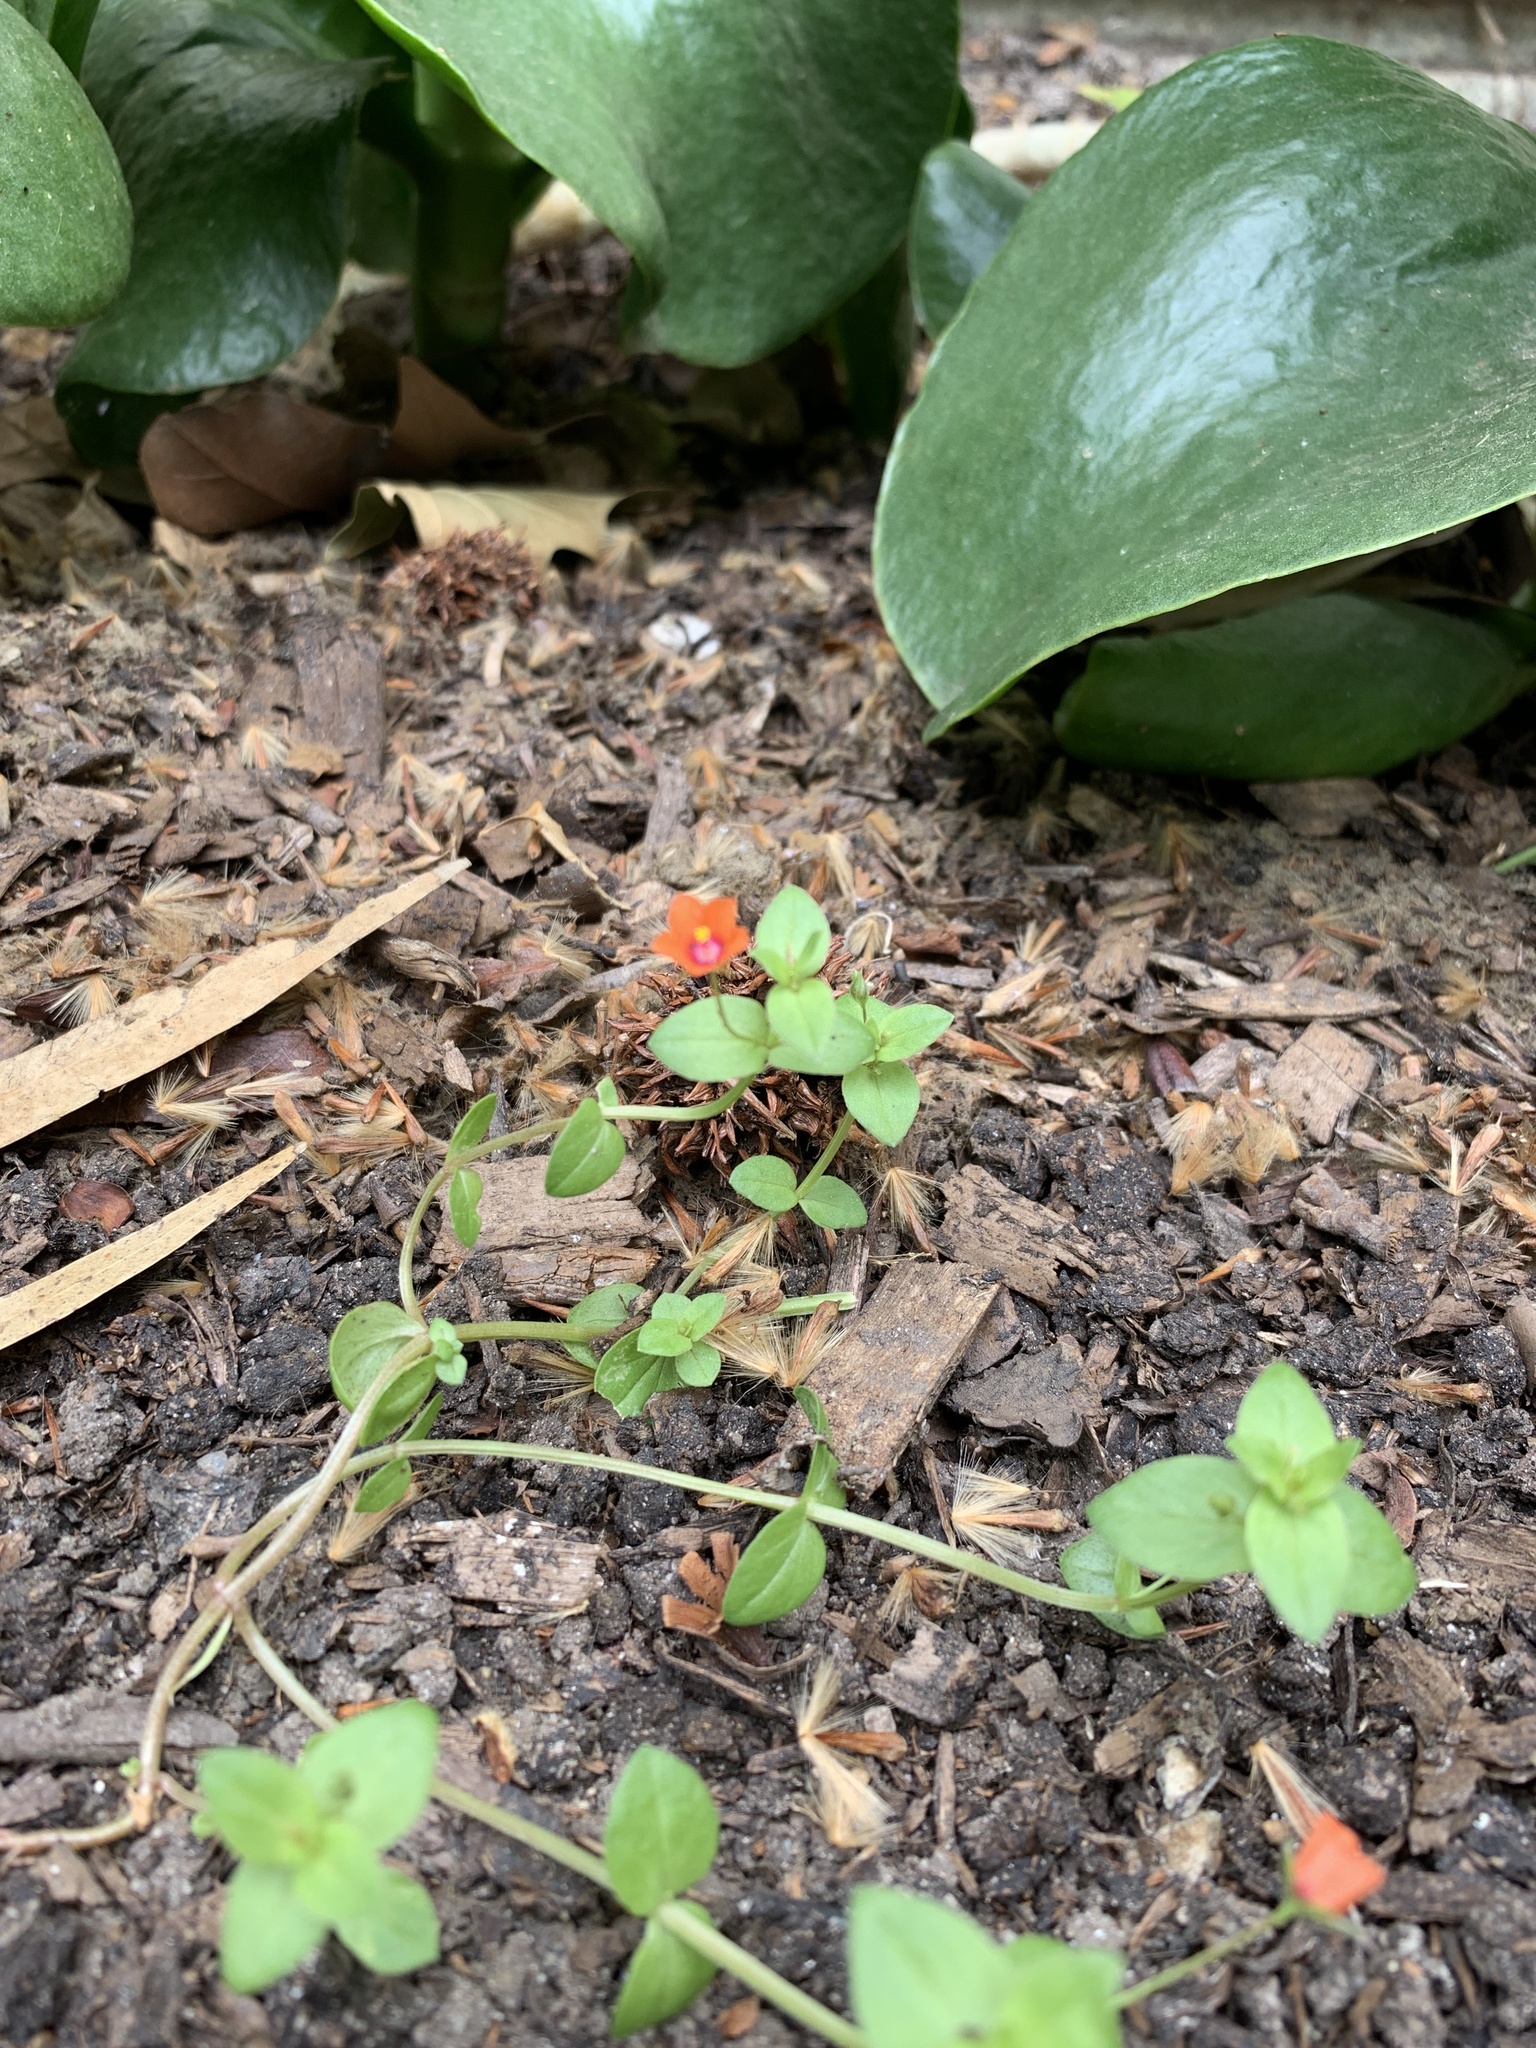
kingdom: Plantae
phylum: Tracheophyta
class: Magnoliopsida
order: Ericales
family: Primulaceae
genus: Lysimachia
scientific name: Lysimachia arvensis
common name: Scarlet pimpernel
